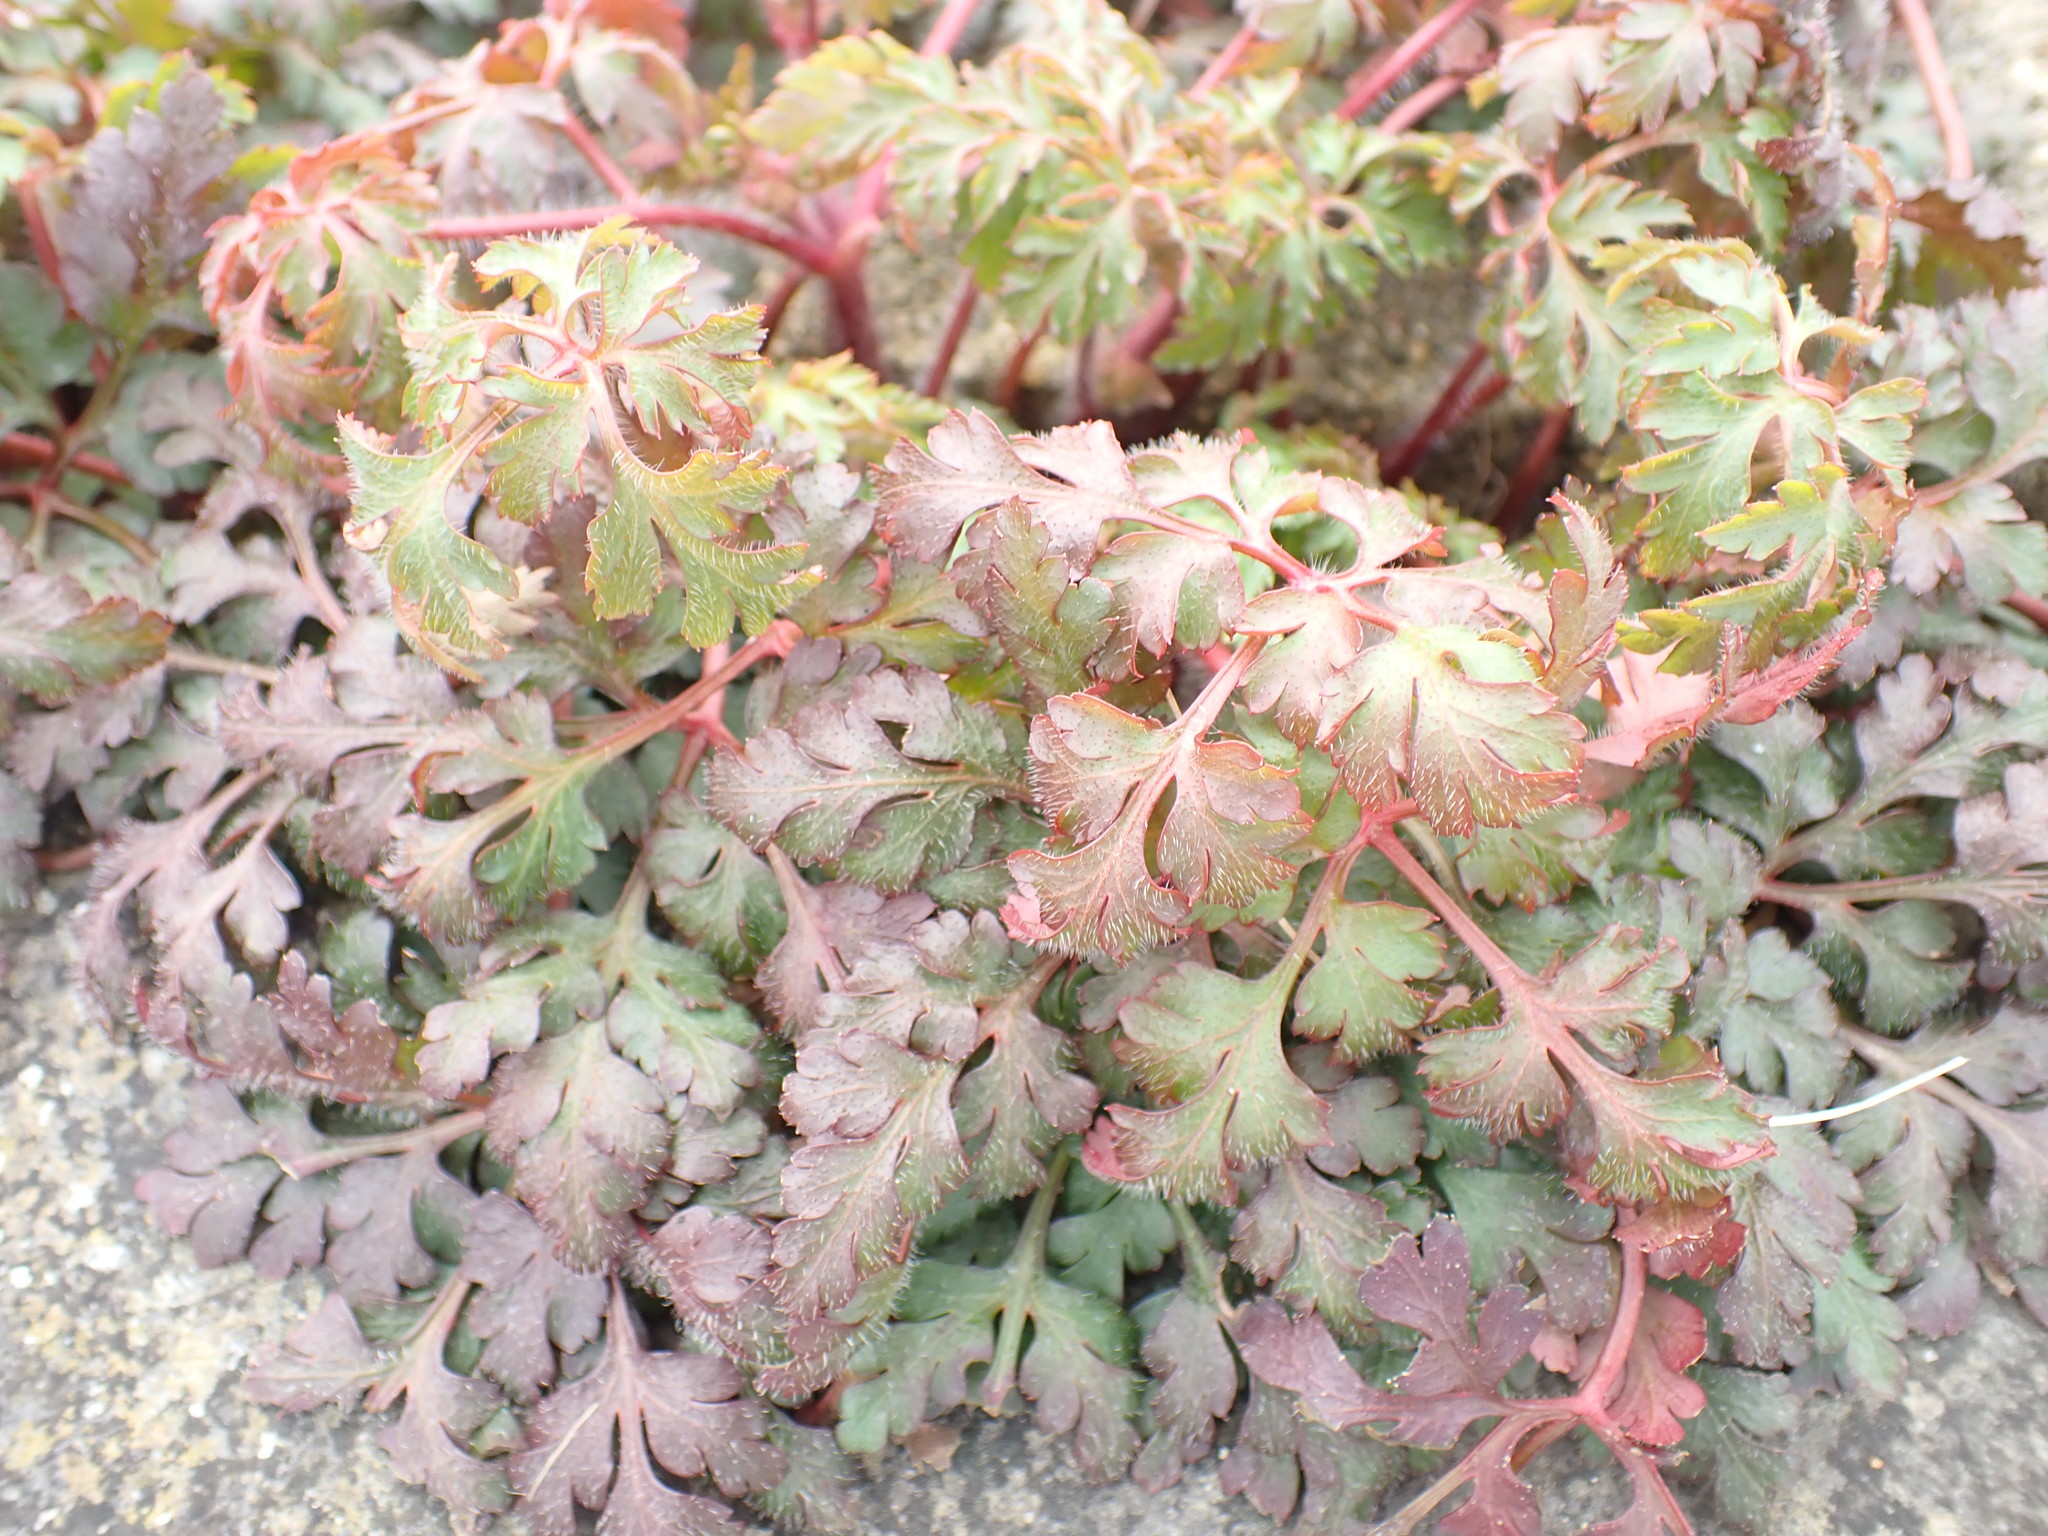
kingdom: Plantae
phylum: Tracheophyta
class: Magnoliopsida
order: Geraniales
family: Geraniaceae
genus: Geranium
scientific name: Geranium robertianum
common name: Herb-robert
